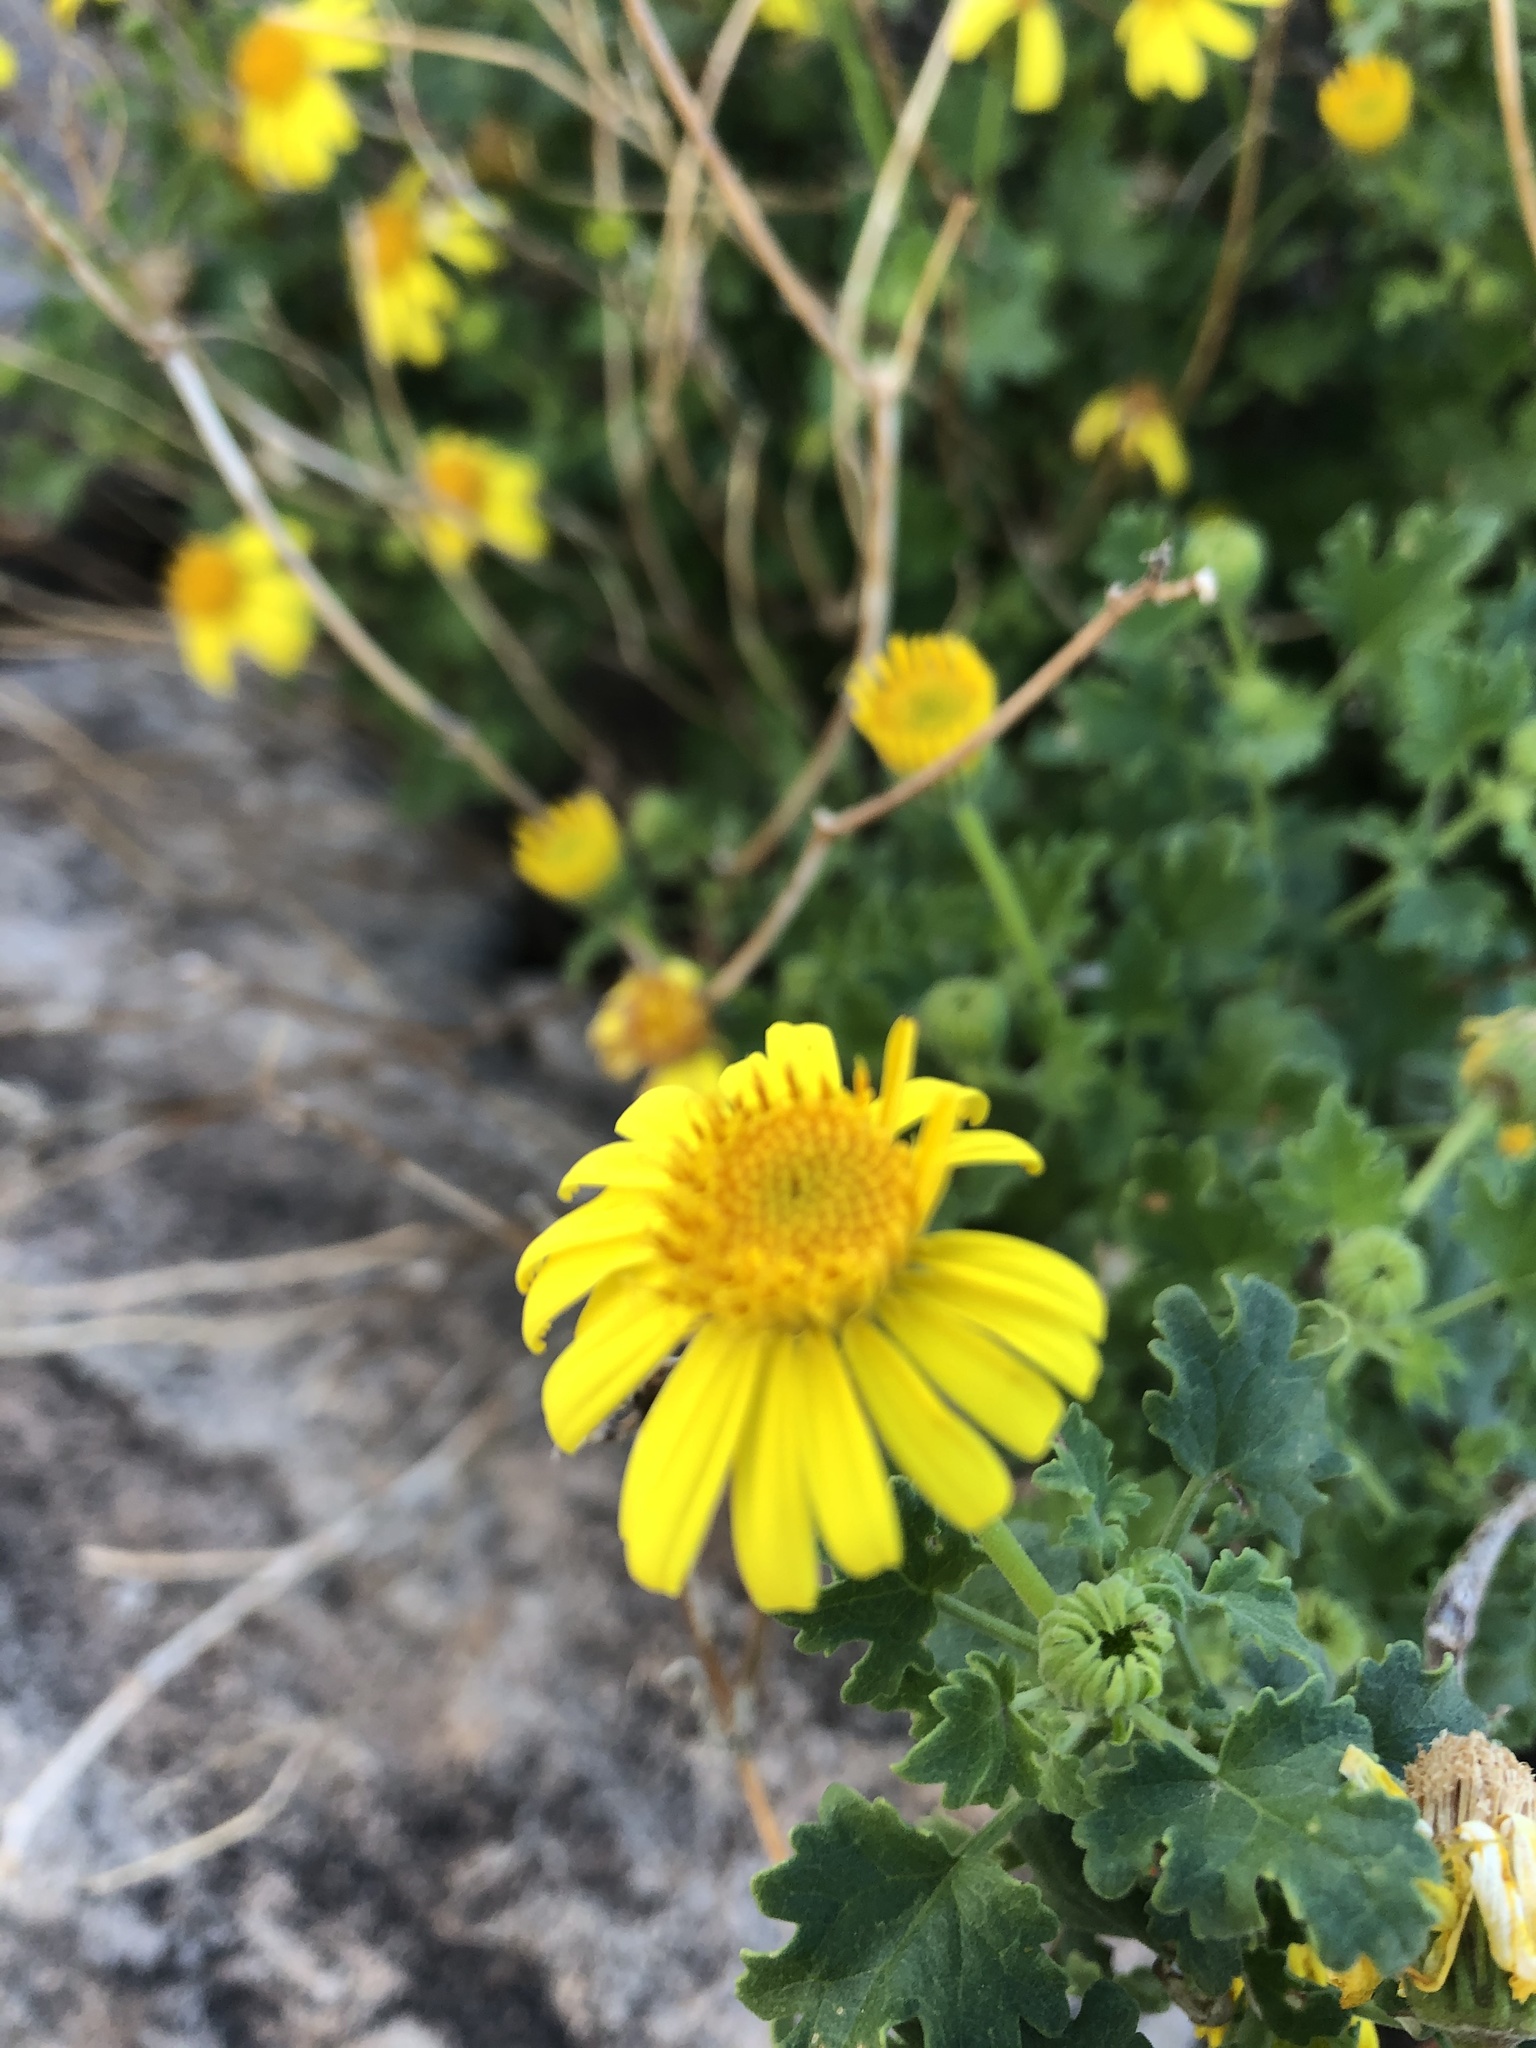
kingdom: Plantae
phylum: Tracheophyta
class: Magnoliopsida
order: Asterales
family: Asteraceae
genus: Laphamia
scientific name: Laphamia leptoglossa
